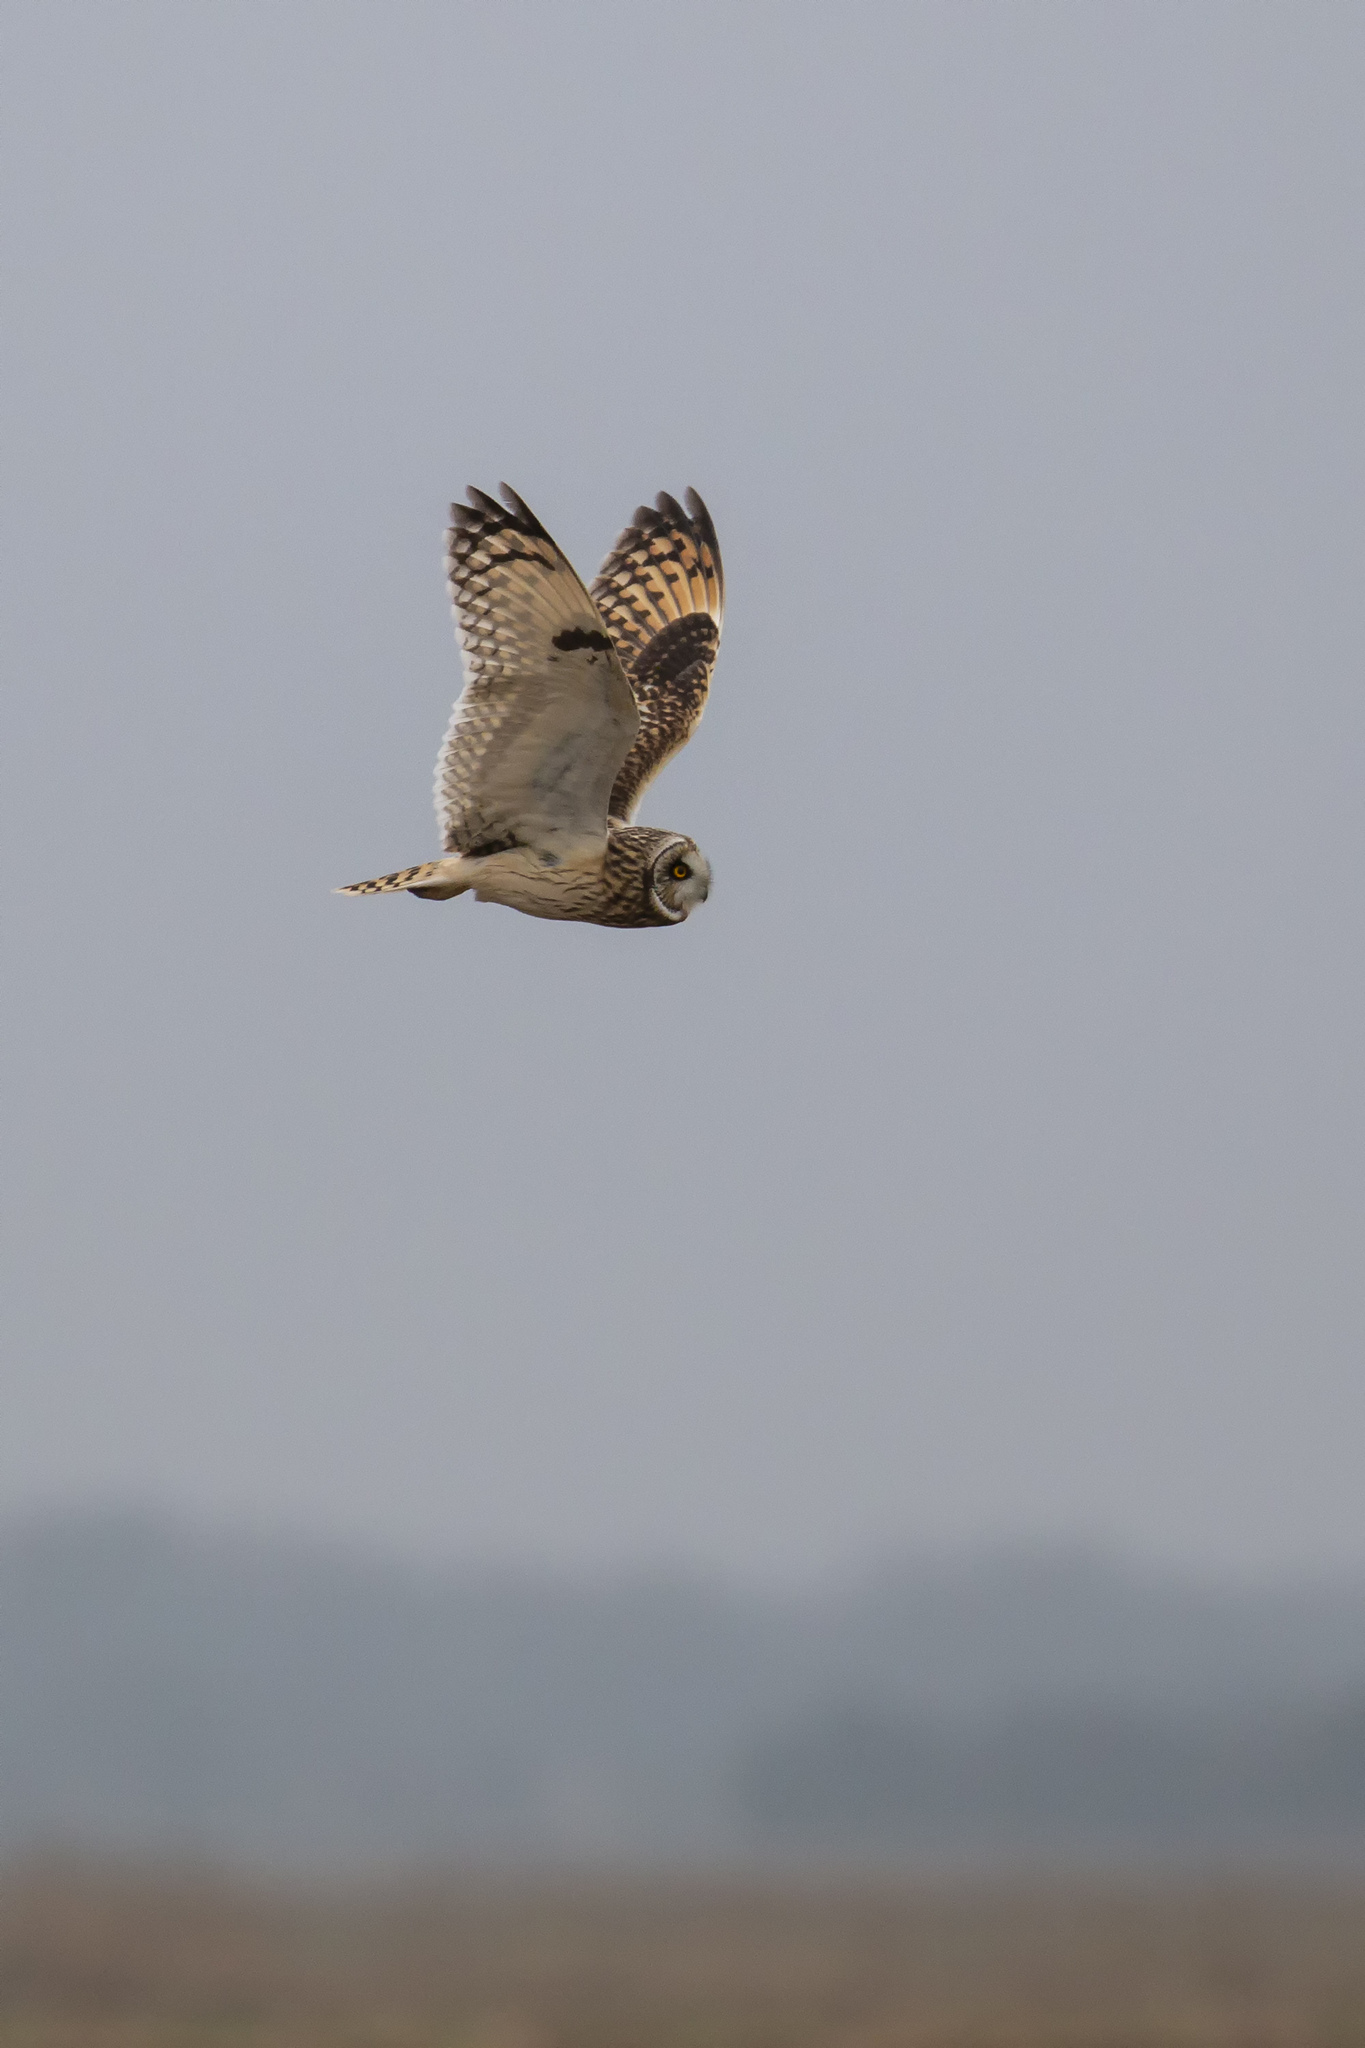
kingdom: Animalia
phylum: Chordata
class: Aves
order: Strigiformes
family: Strigidae
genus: Asio
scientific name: Asio flammeus
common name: Short-eared owl
